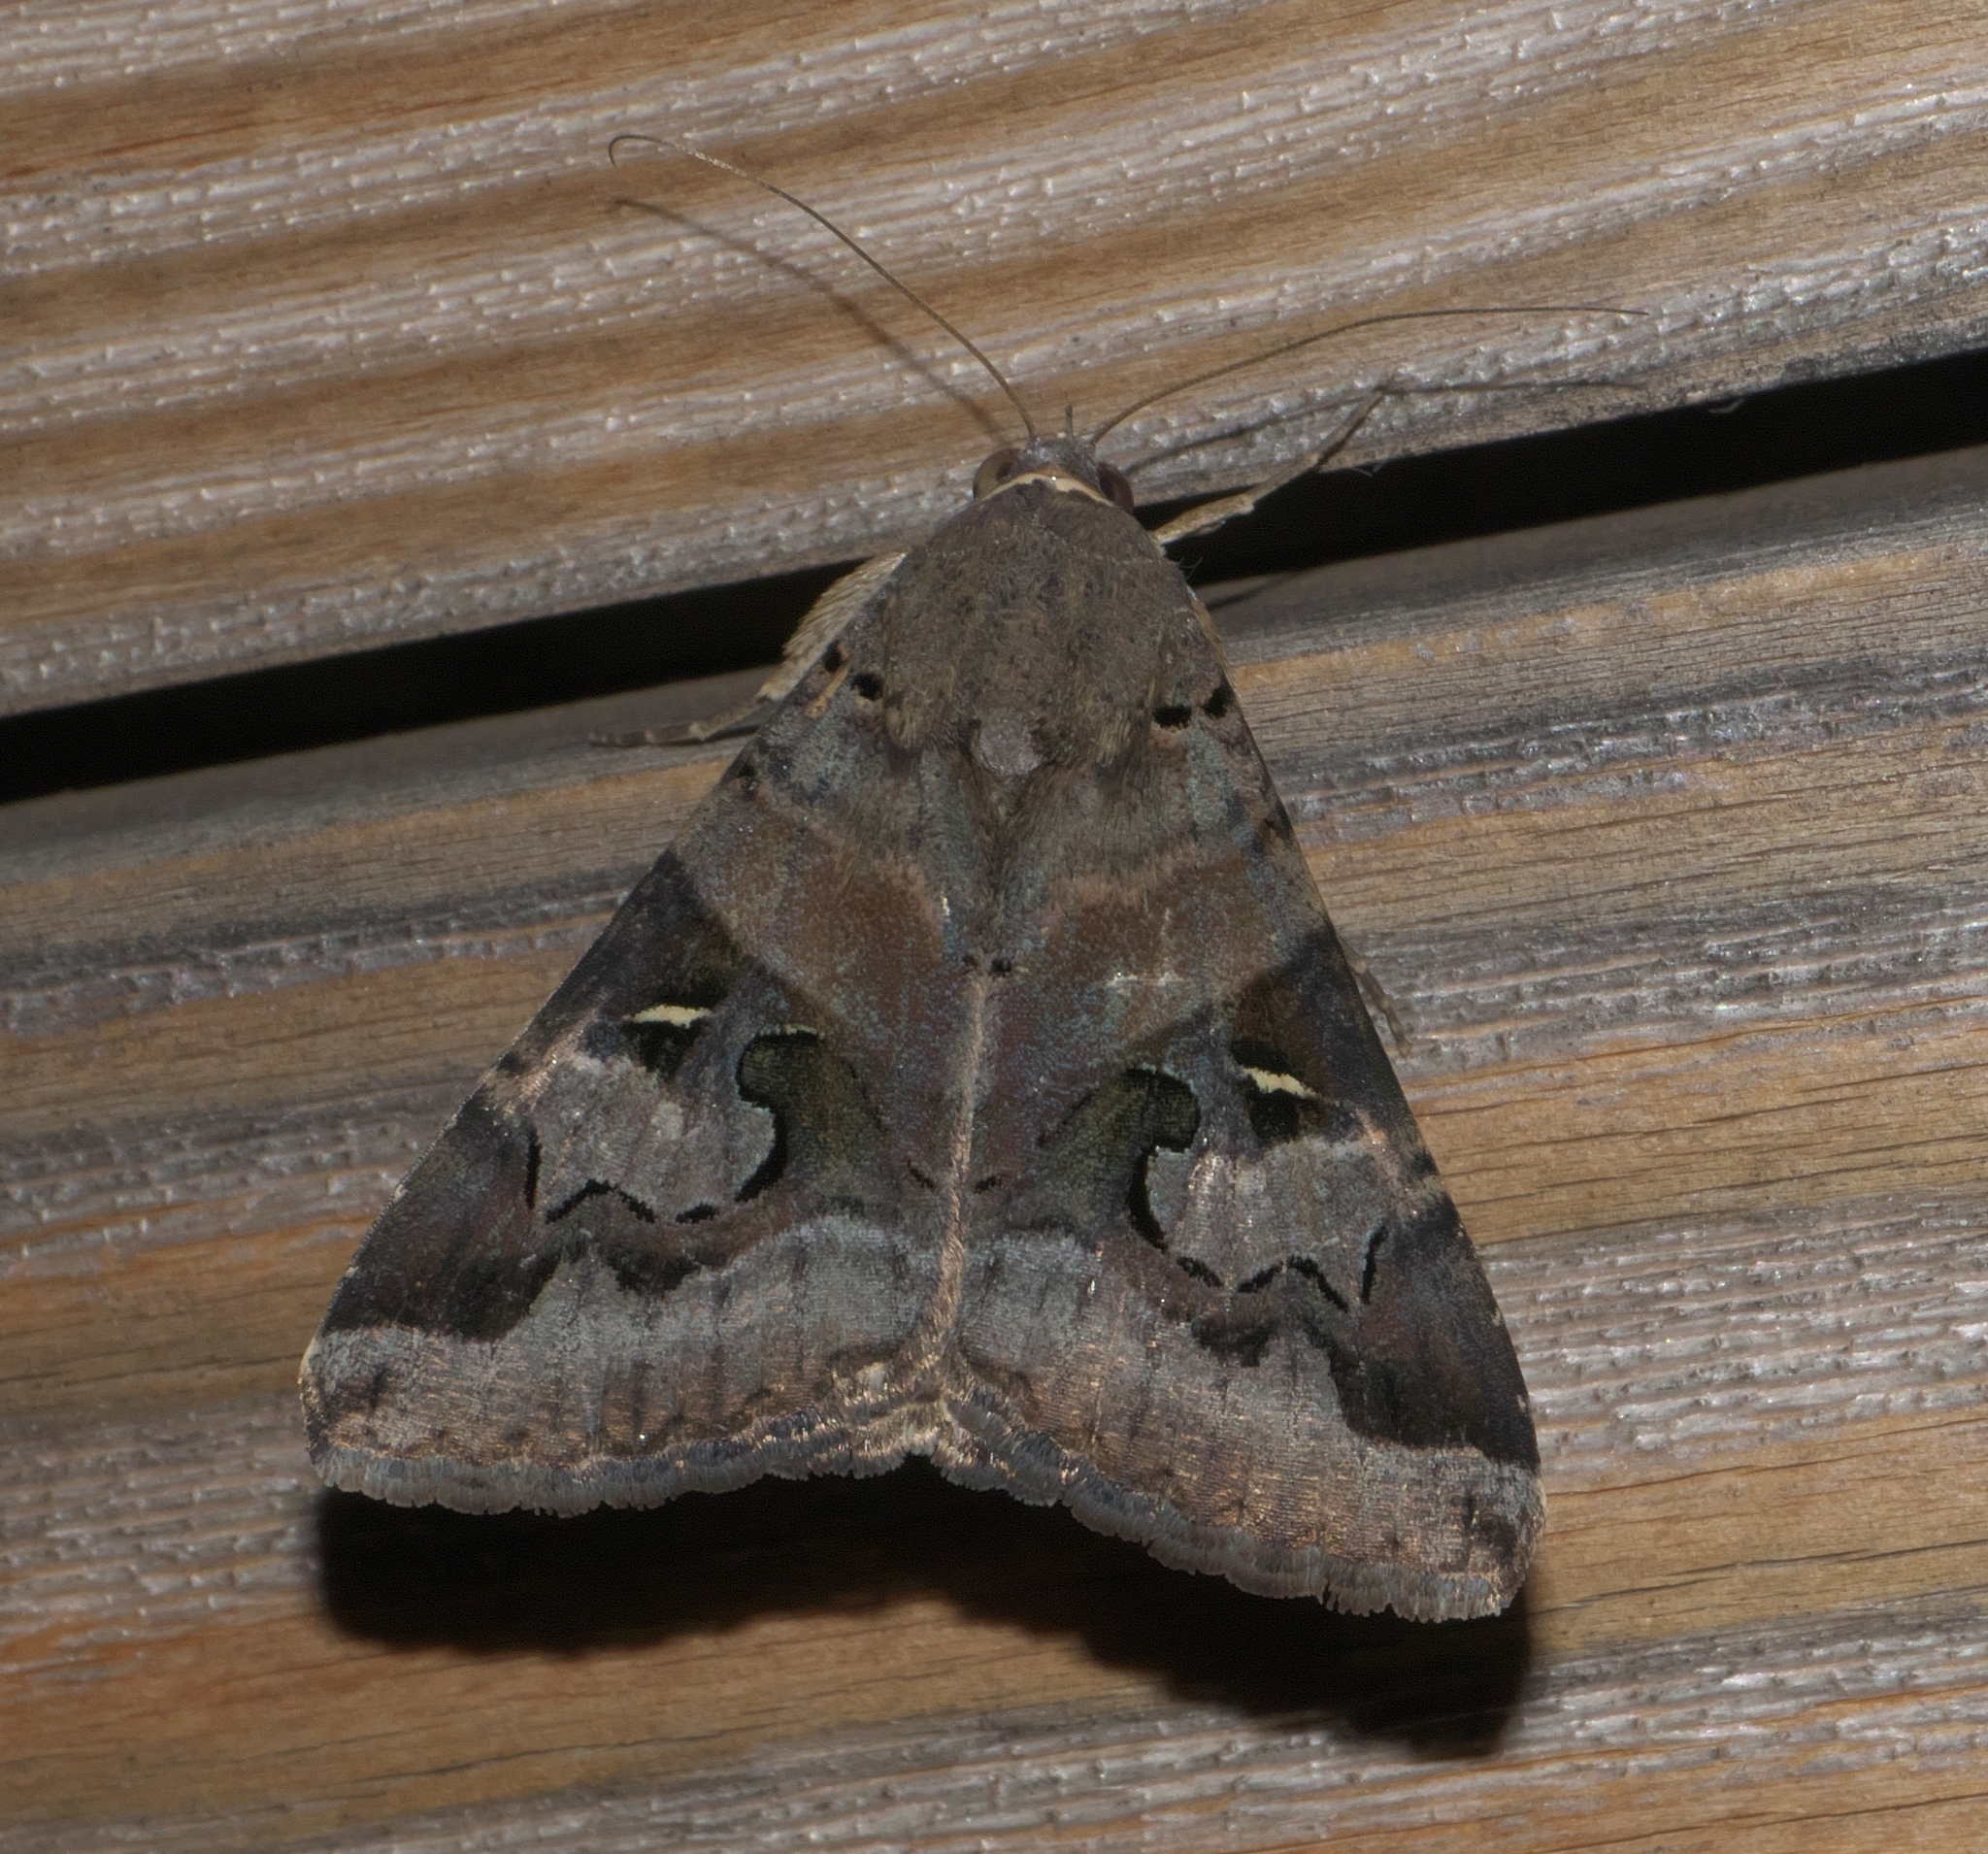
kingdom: Animalia
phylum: Arthropoda
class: Insecta
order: Lepidoptera
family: Erebidae
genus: Melipotis
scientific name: Melipotis indomita
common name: Moth
